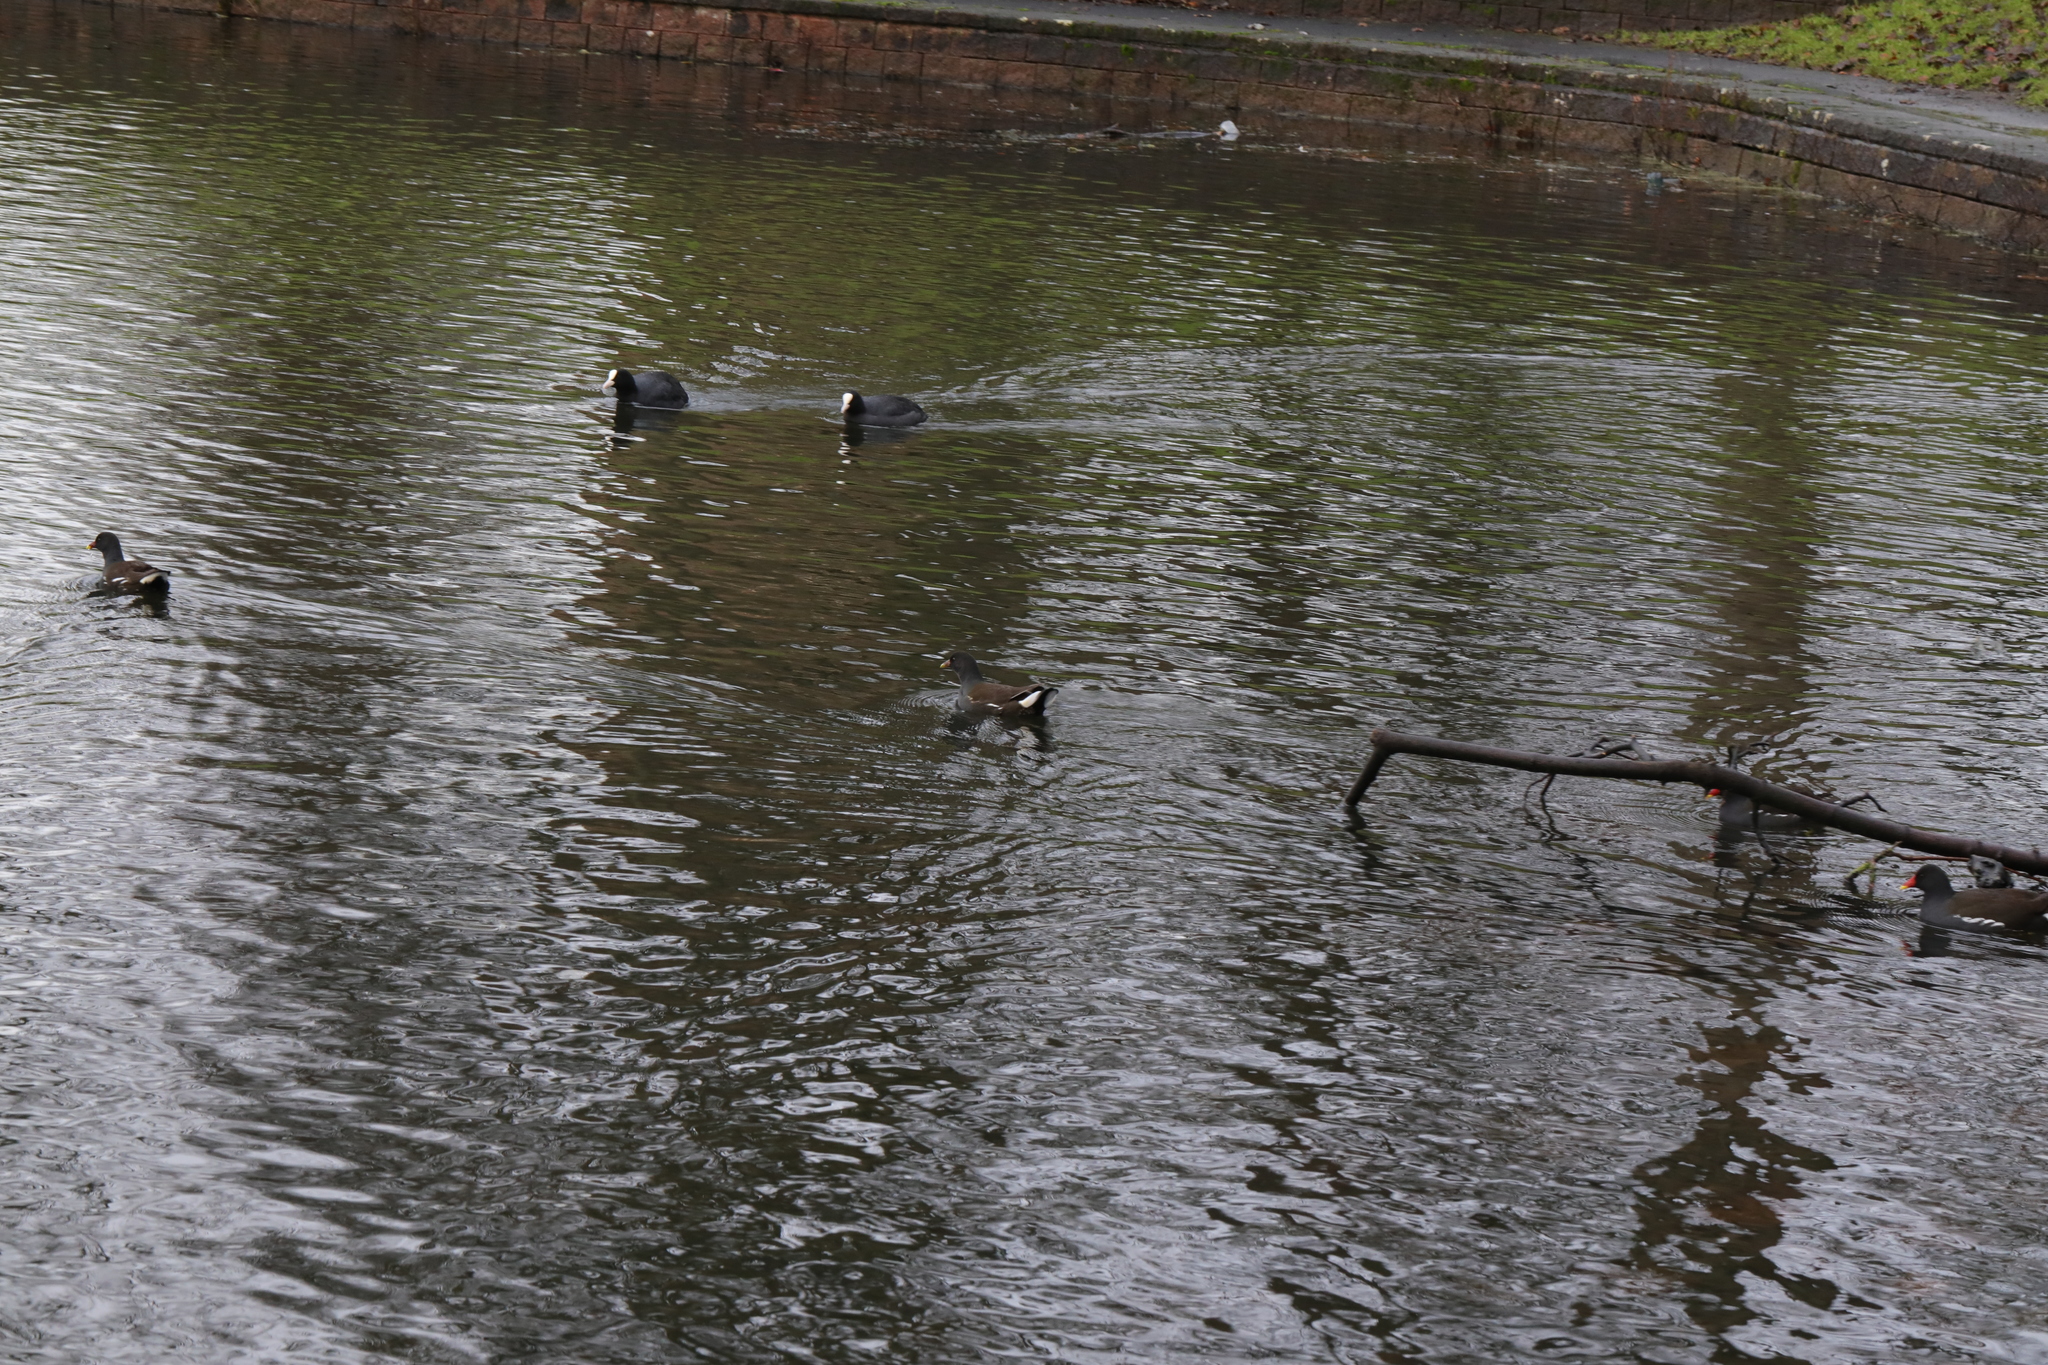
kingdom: Animalia
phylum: Chordata
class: Aves
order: Gruiformes
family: Rallidae
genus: Gallinula
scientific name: Gallinula chloropus
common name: Common moorhen
